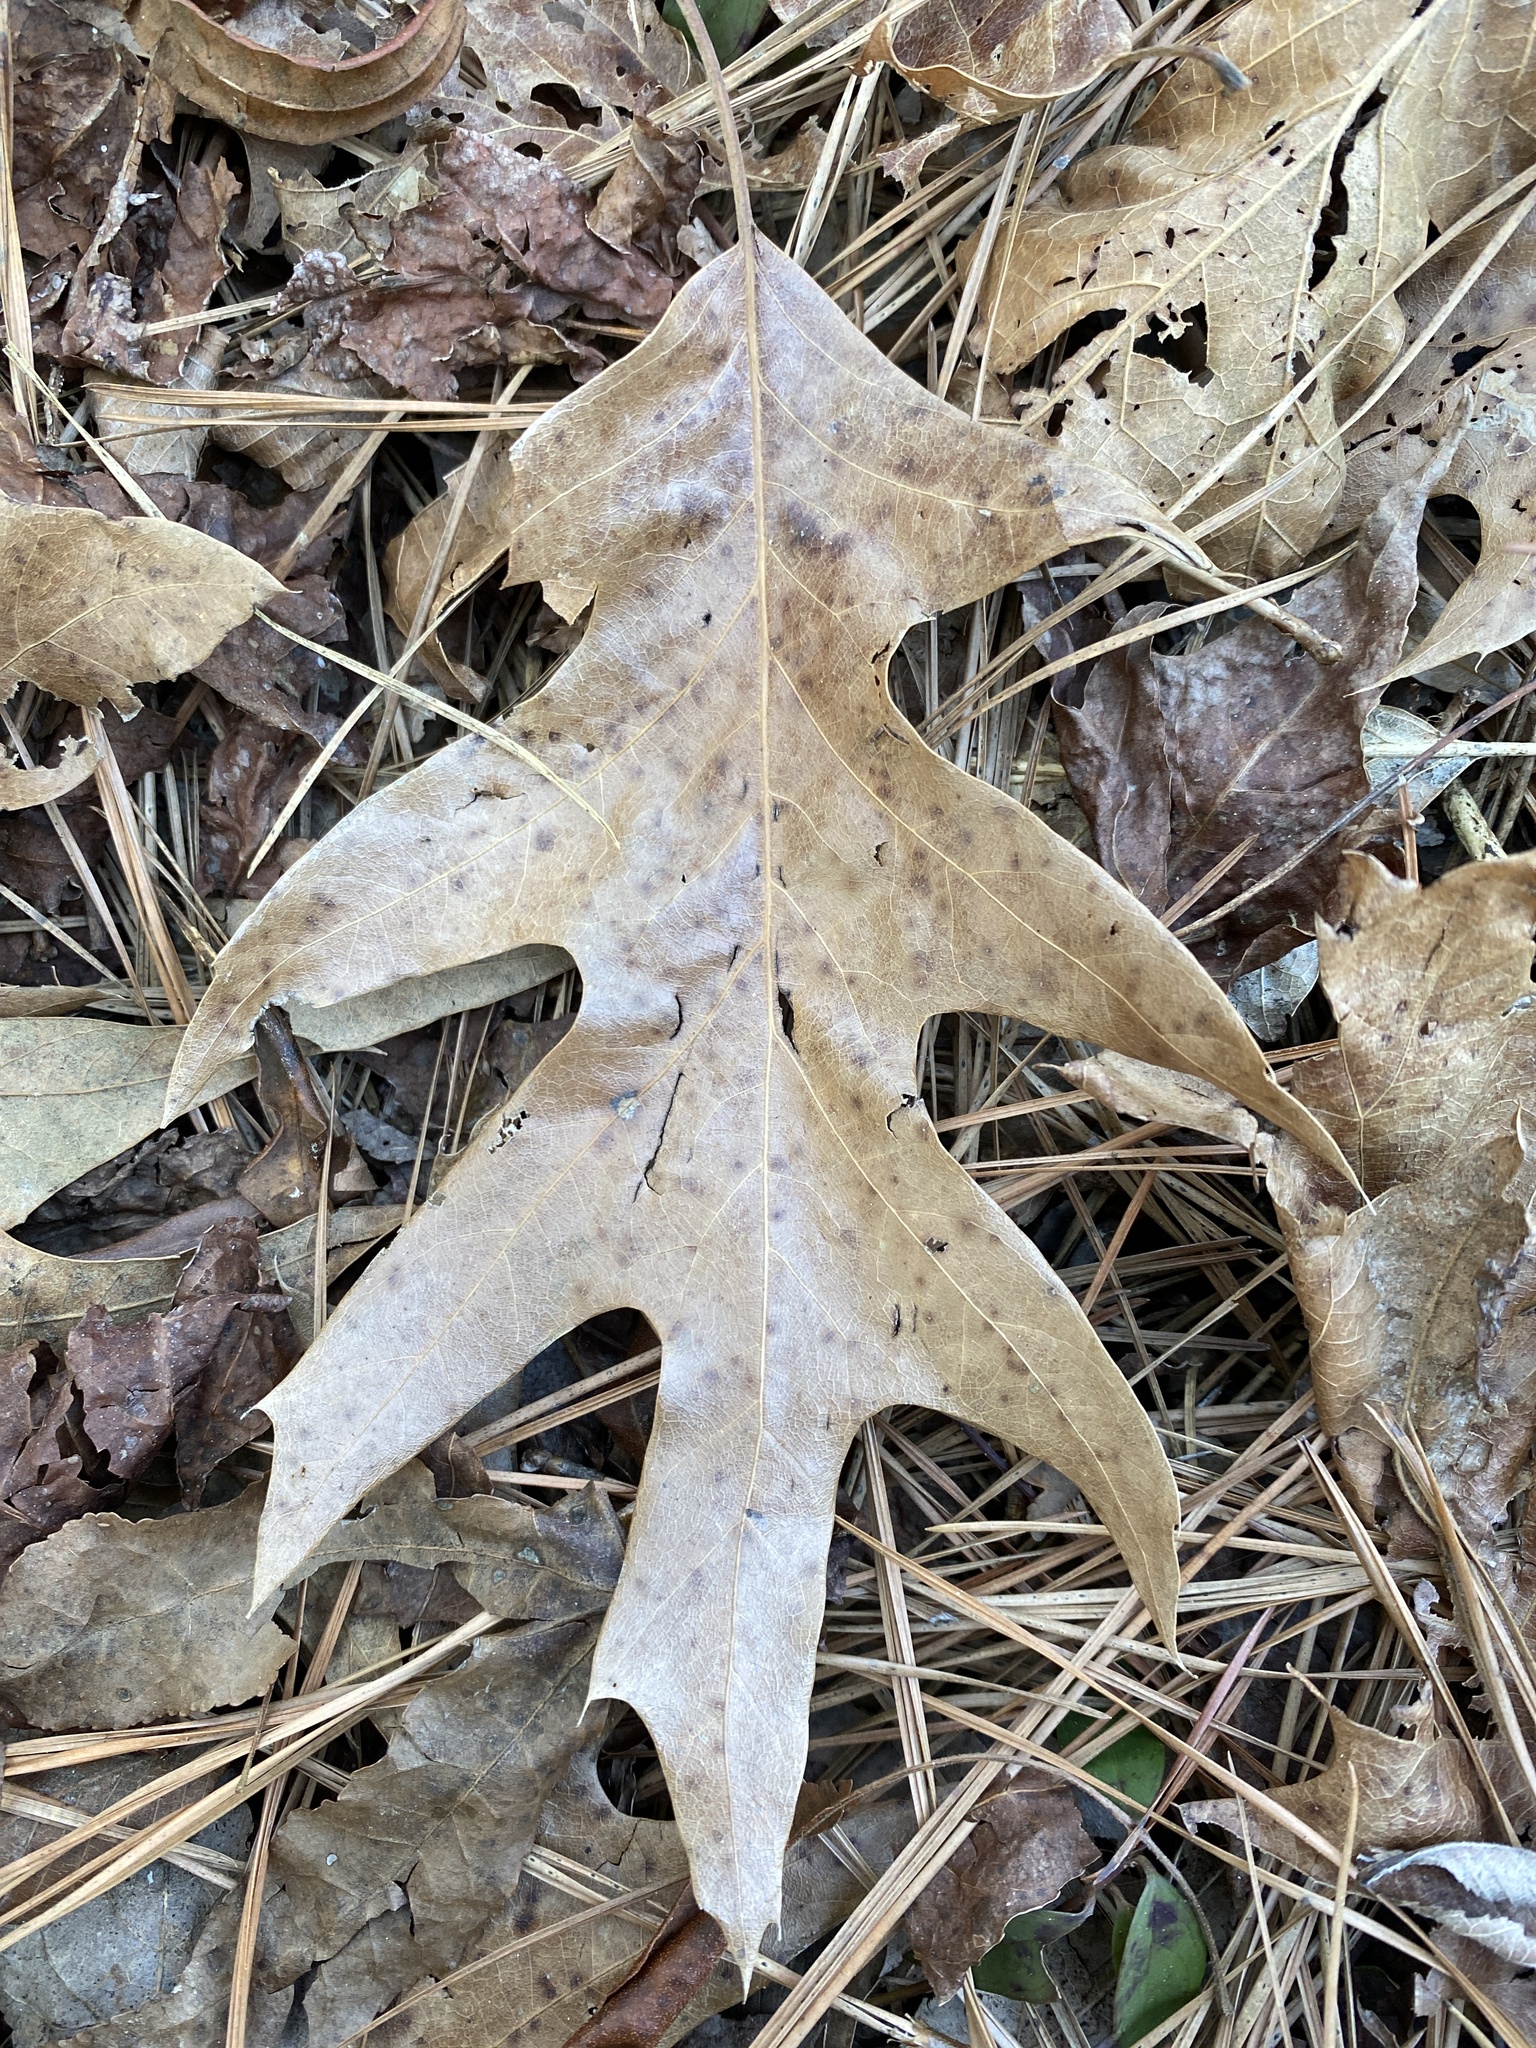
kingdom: Plantae
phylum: Tracheophyta
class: Magnoliopsida
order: Fagales
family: Fagaceae
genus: Quercus
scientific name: Quercus pagoda
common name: Cherrybark oak
